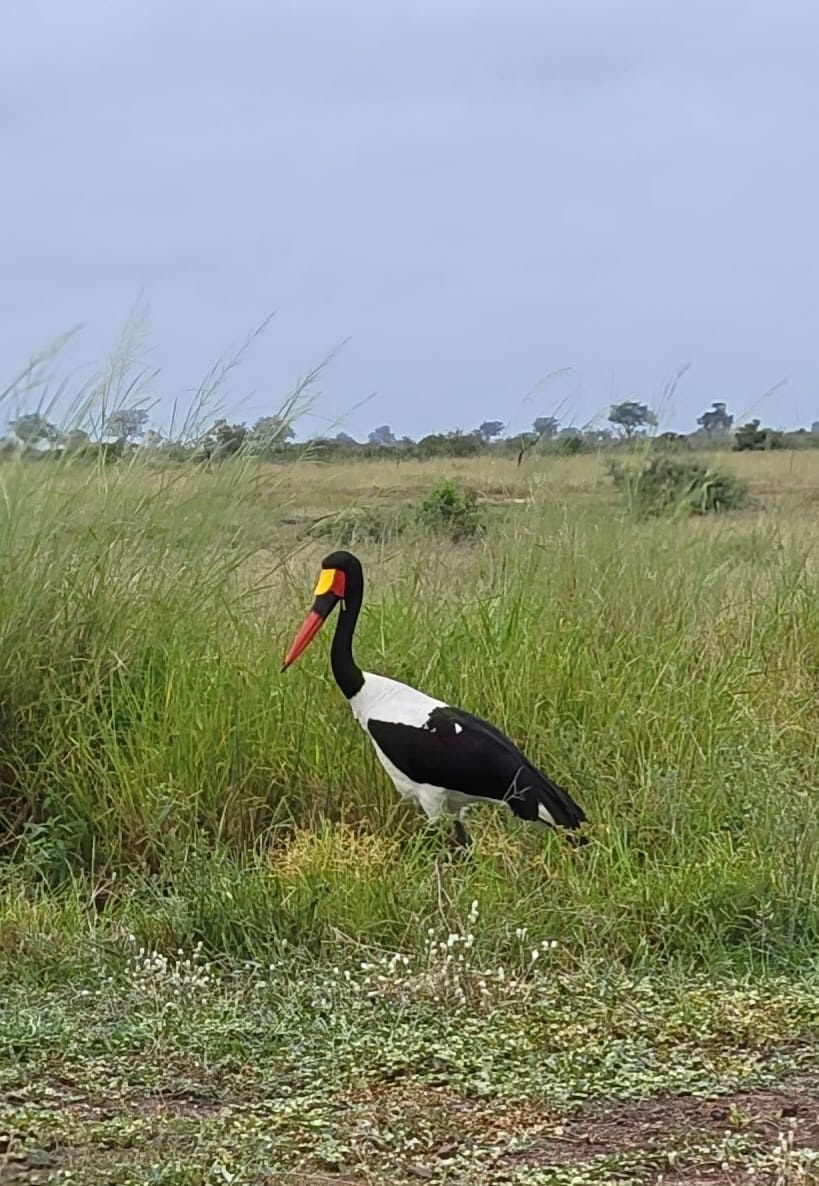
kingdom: Animalia
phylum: Chordata
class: Aves
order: Ciconiiformes
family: Ciconiidae
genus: Ephippiorhynchus
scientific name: Ephippiorhynchus senegalensis
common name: Saddle-billed stork
